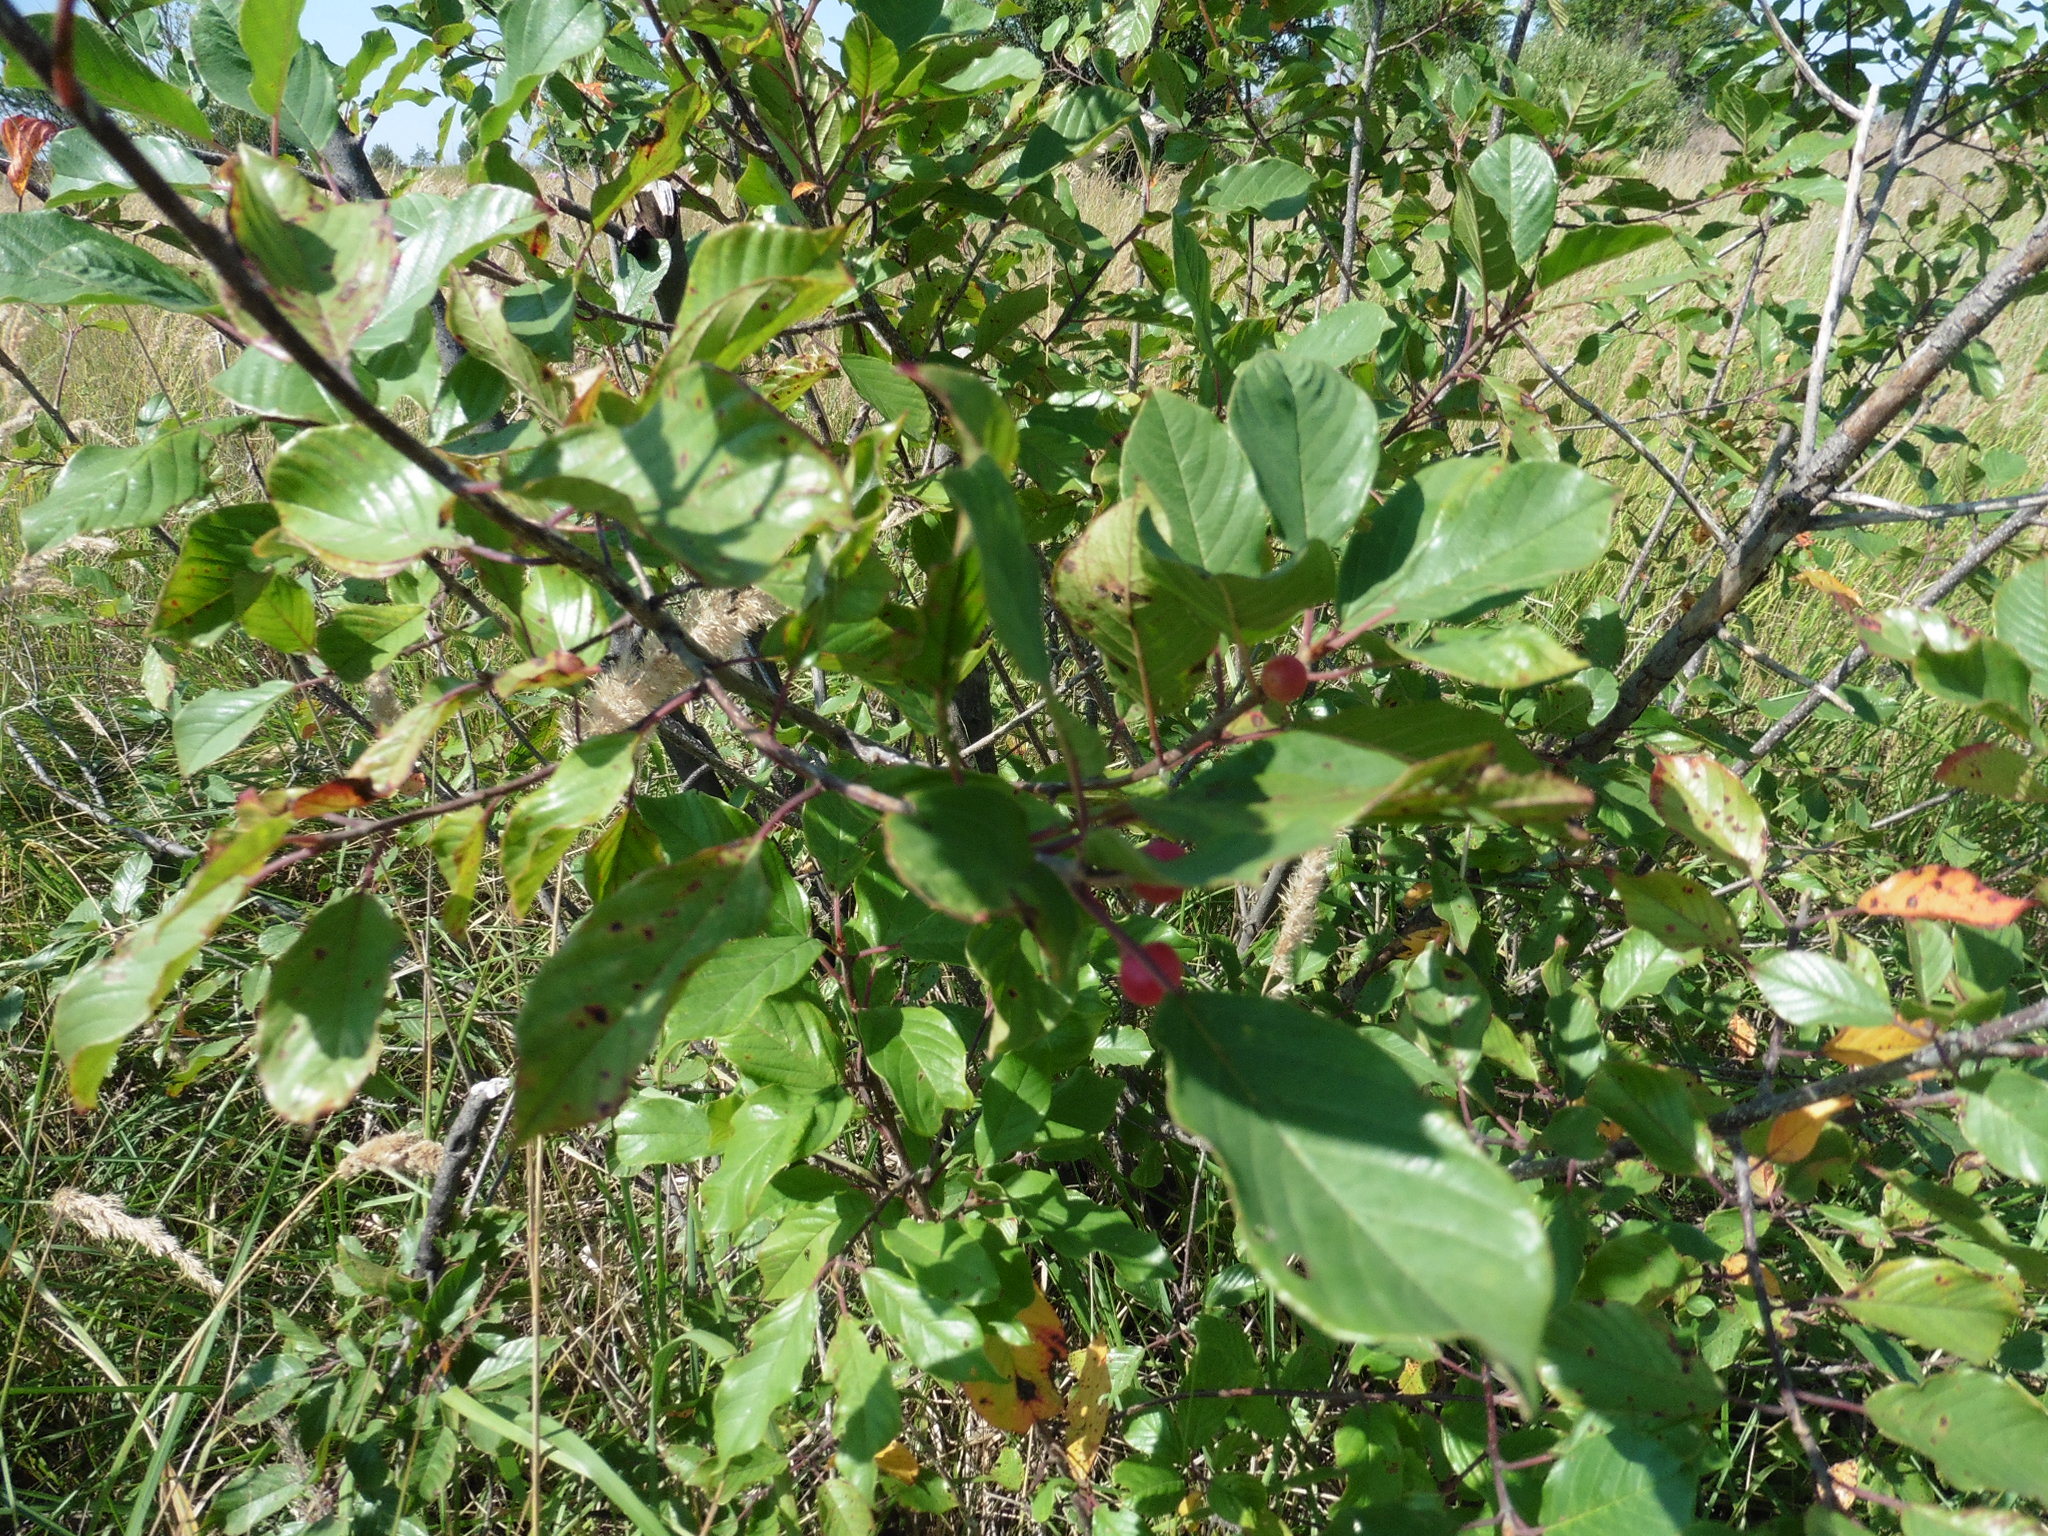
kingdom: Plantae
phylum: Tracheophyta
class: Magnoliopsida
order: Rosales
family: Rhamnaceae
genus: Frangula
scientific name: Frangula alnus
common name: Alder buckthorn
